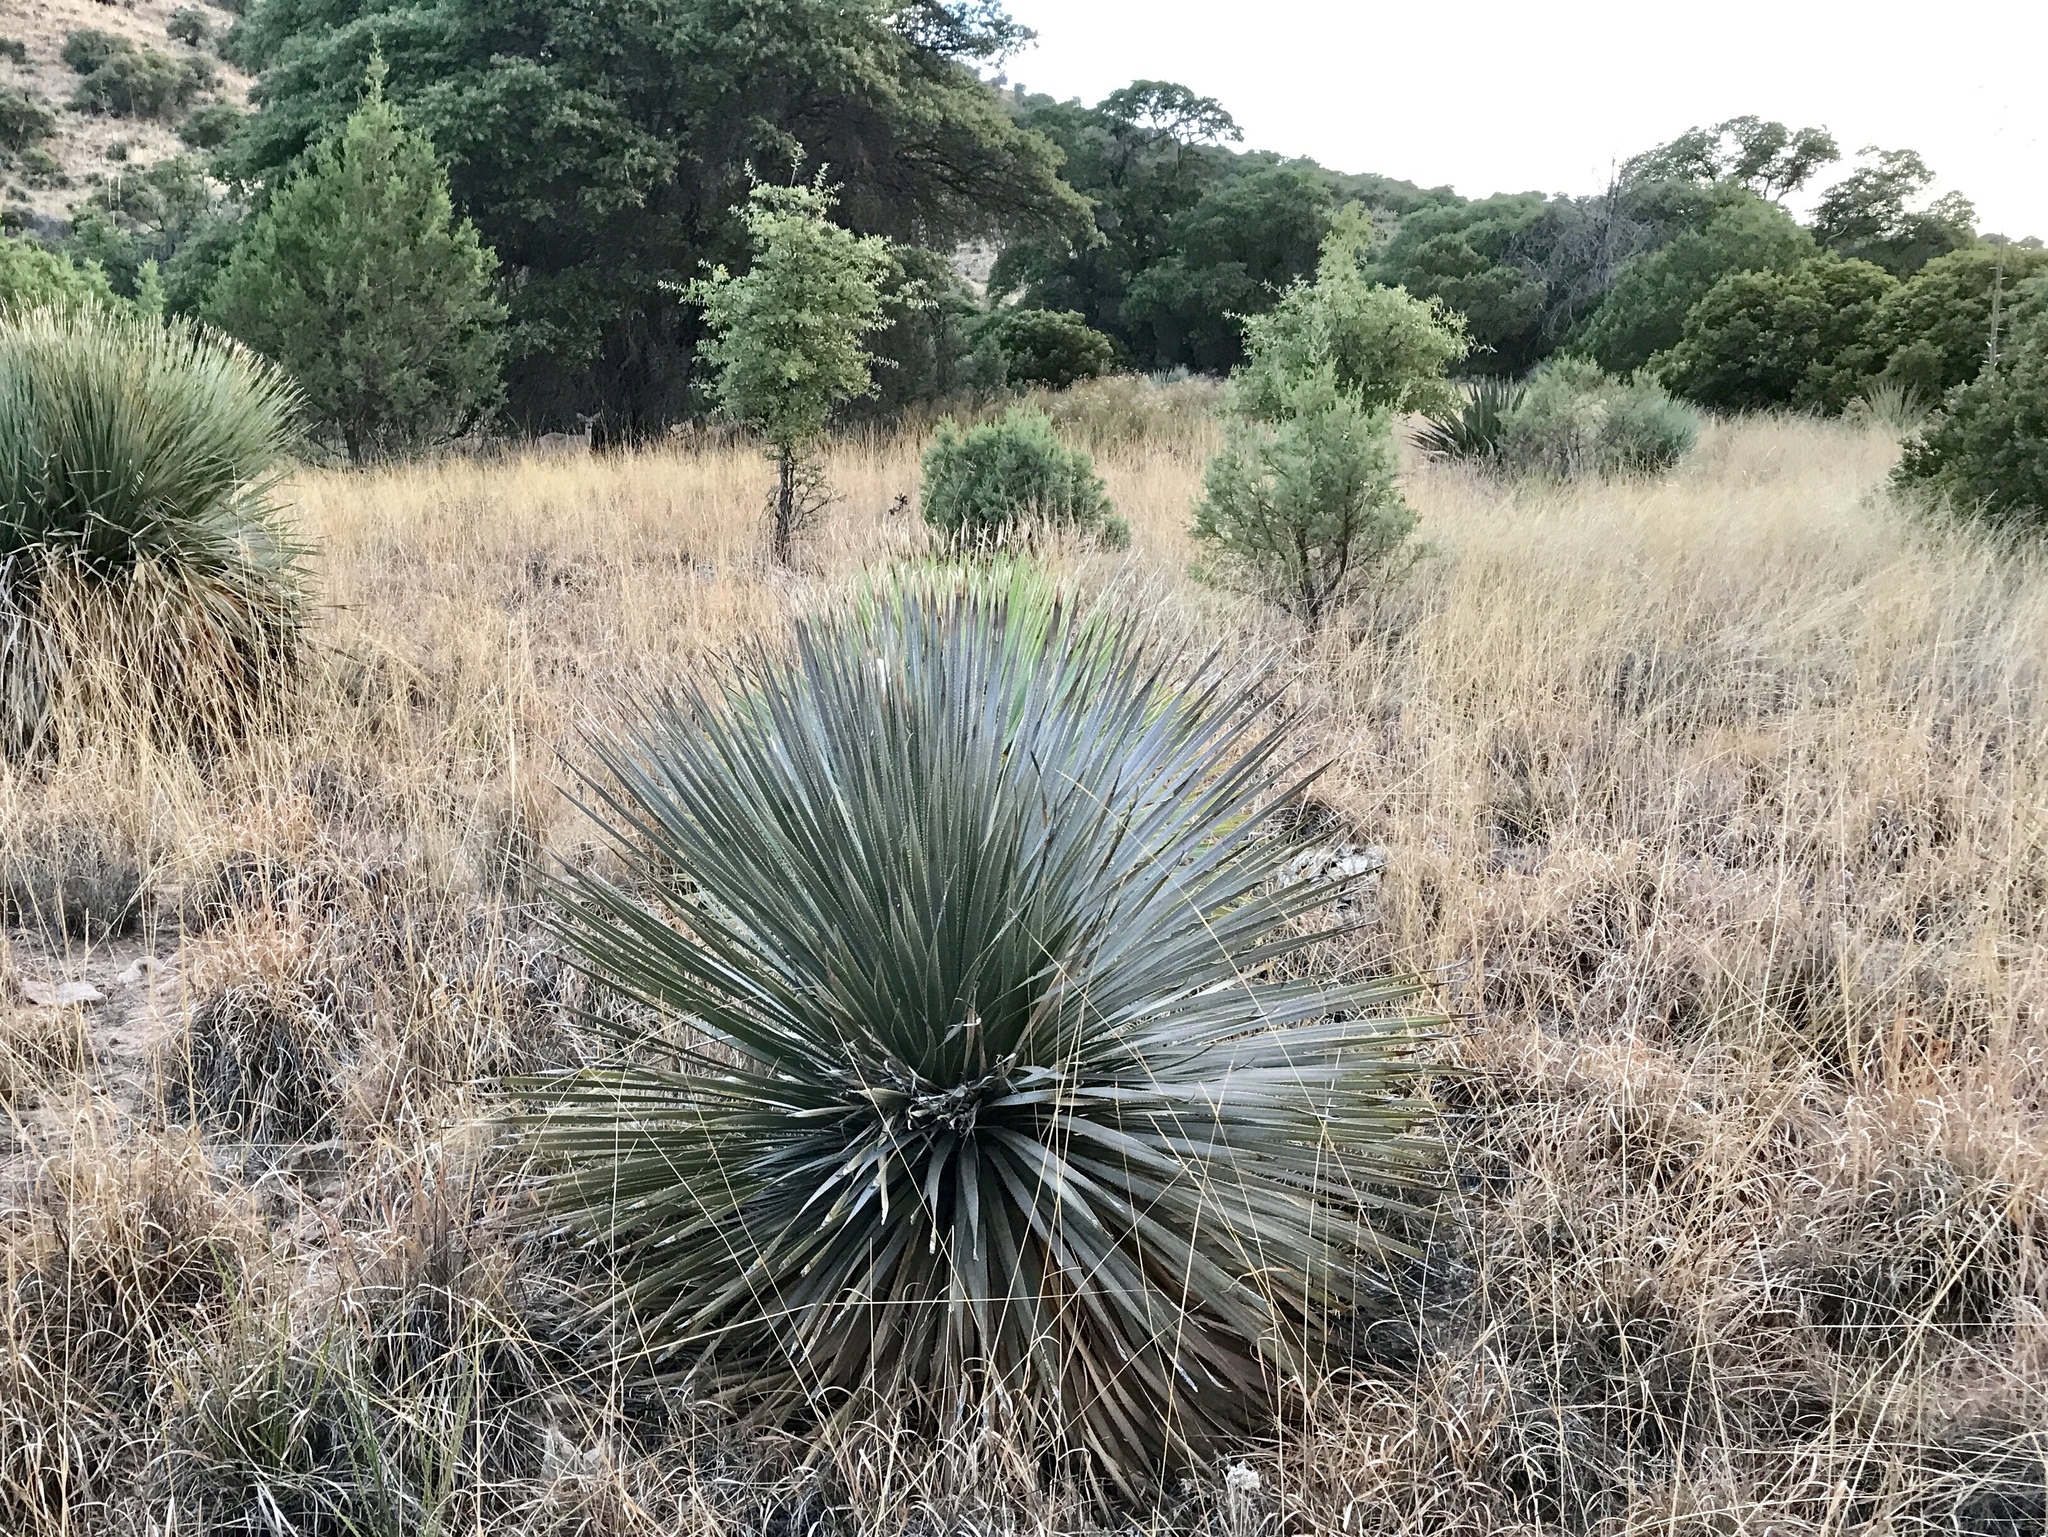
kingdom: Plantae
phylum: Tracheophyta
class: Liliopsida
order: Asparagales
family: Asparagaceae
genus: Dasylirion
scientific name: Dasylirion wheeleri
